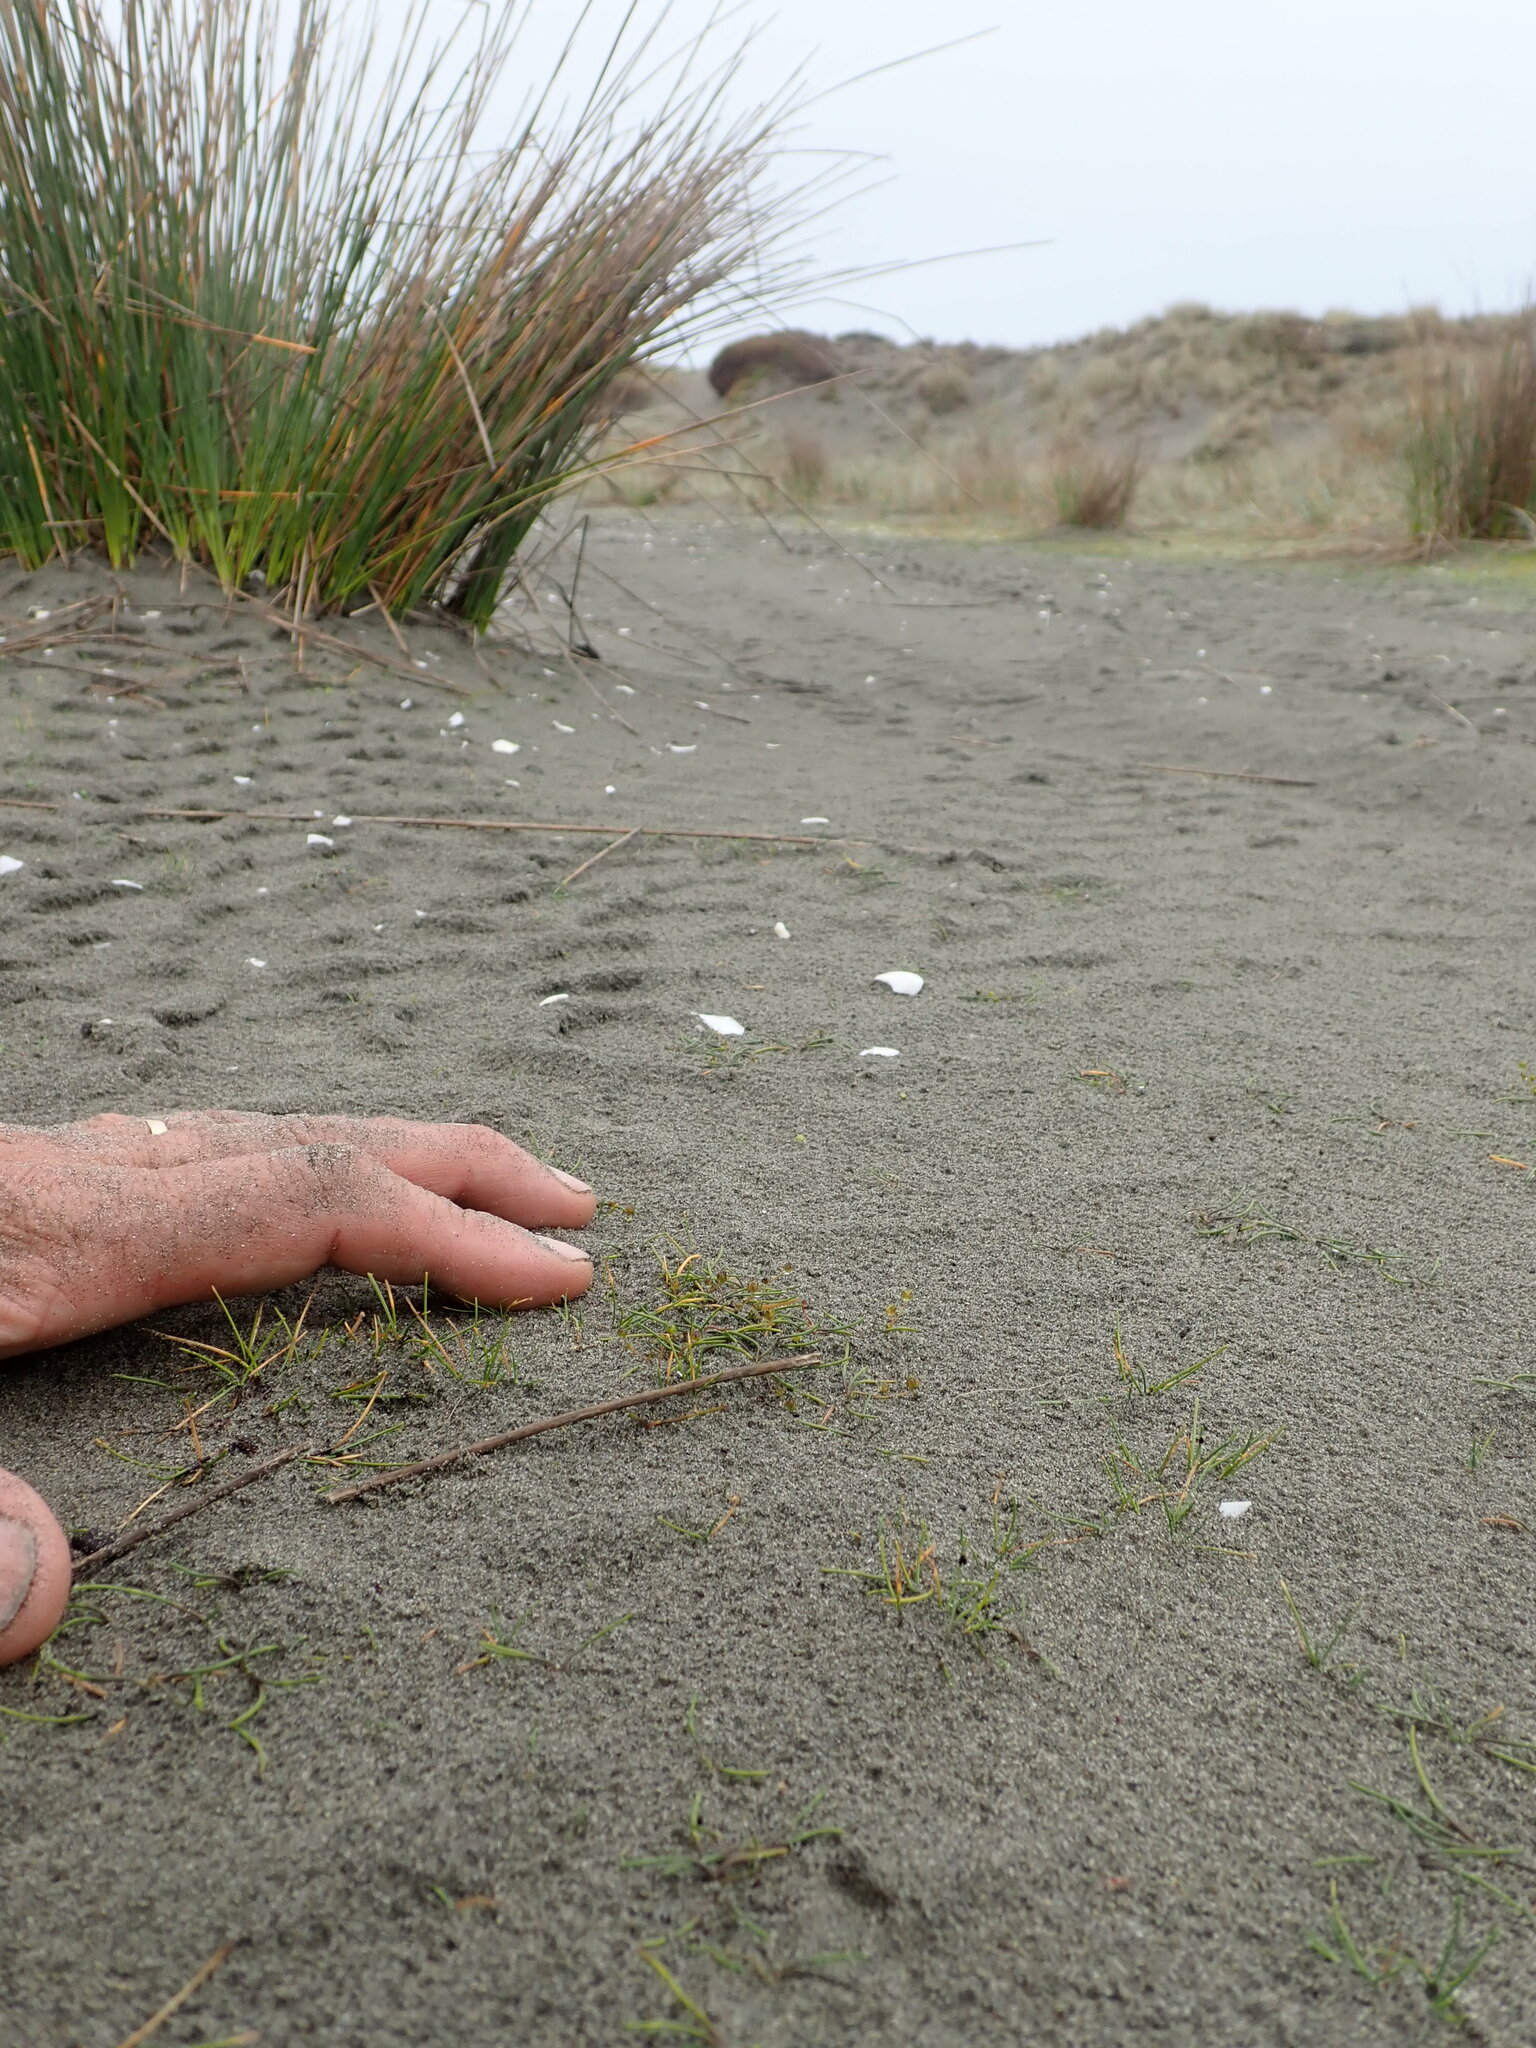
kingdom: Plantae
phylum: Tracheophyta
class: Liliopsida
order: Alismatales
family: Juncaginaceae
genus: Triglochin
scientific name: Triglochin striata
